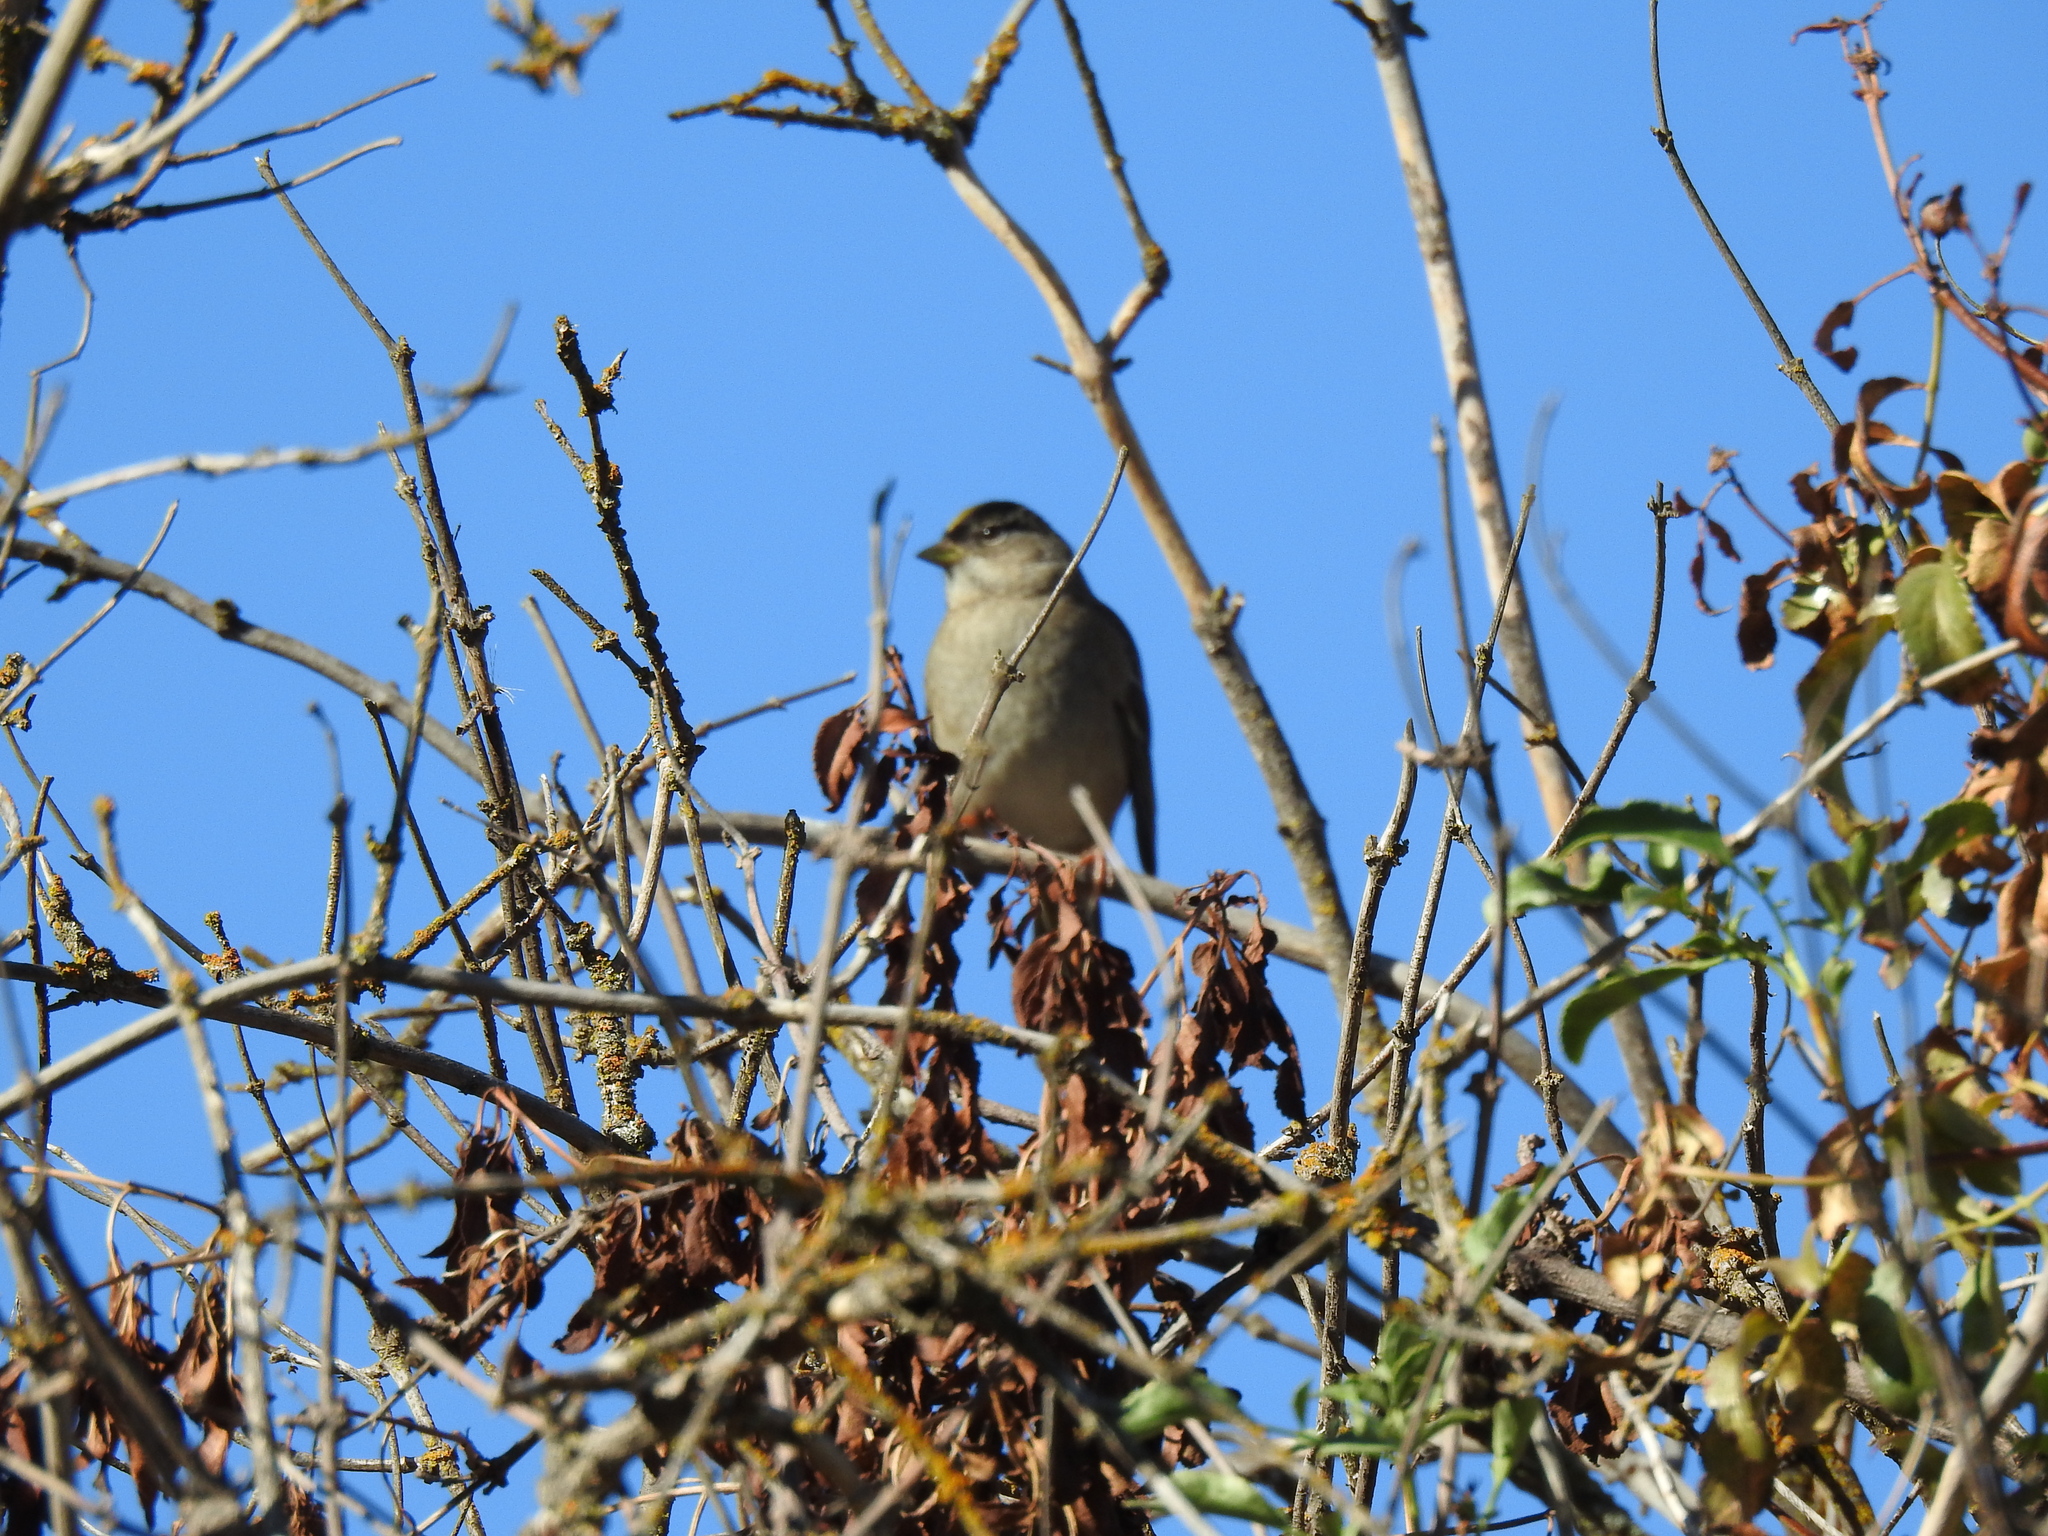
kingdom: Animalia
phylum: Chordata
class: Aves
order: Passeriformes
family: Passerellidae
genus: Zonotrichia
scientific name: Zonotrichia atricapilla
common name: Golden-crowned sparrow
